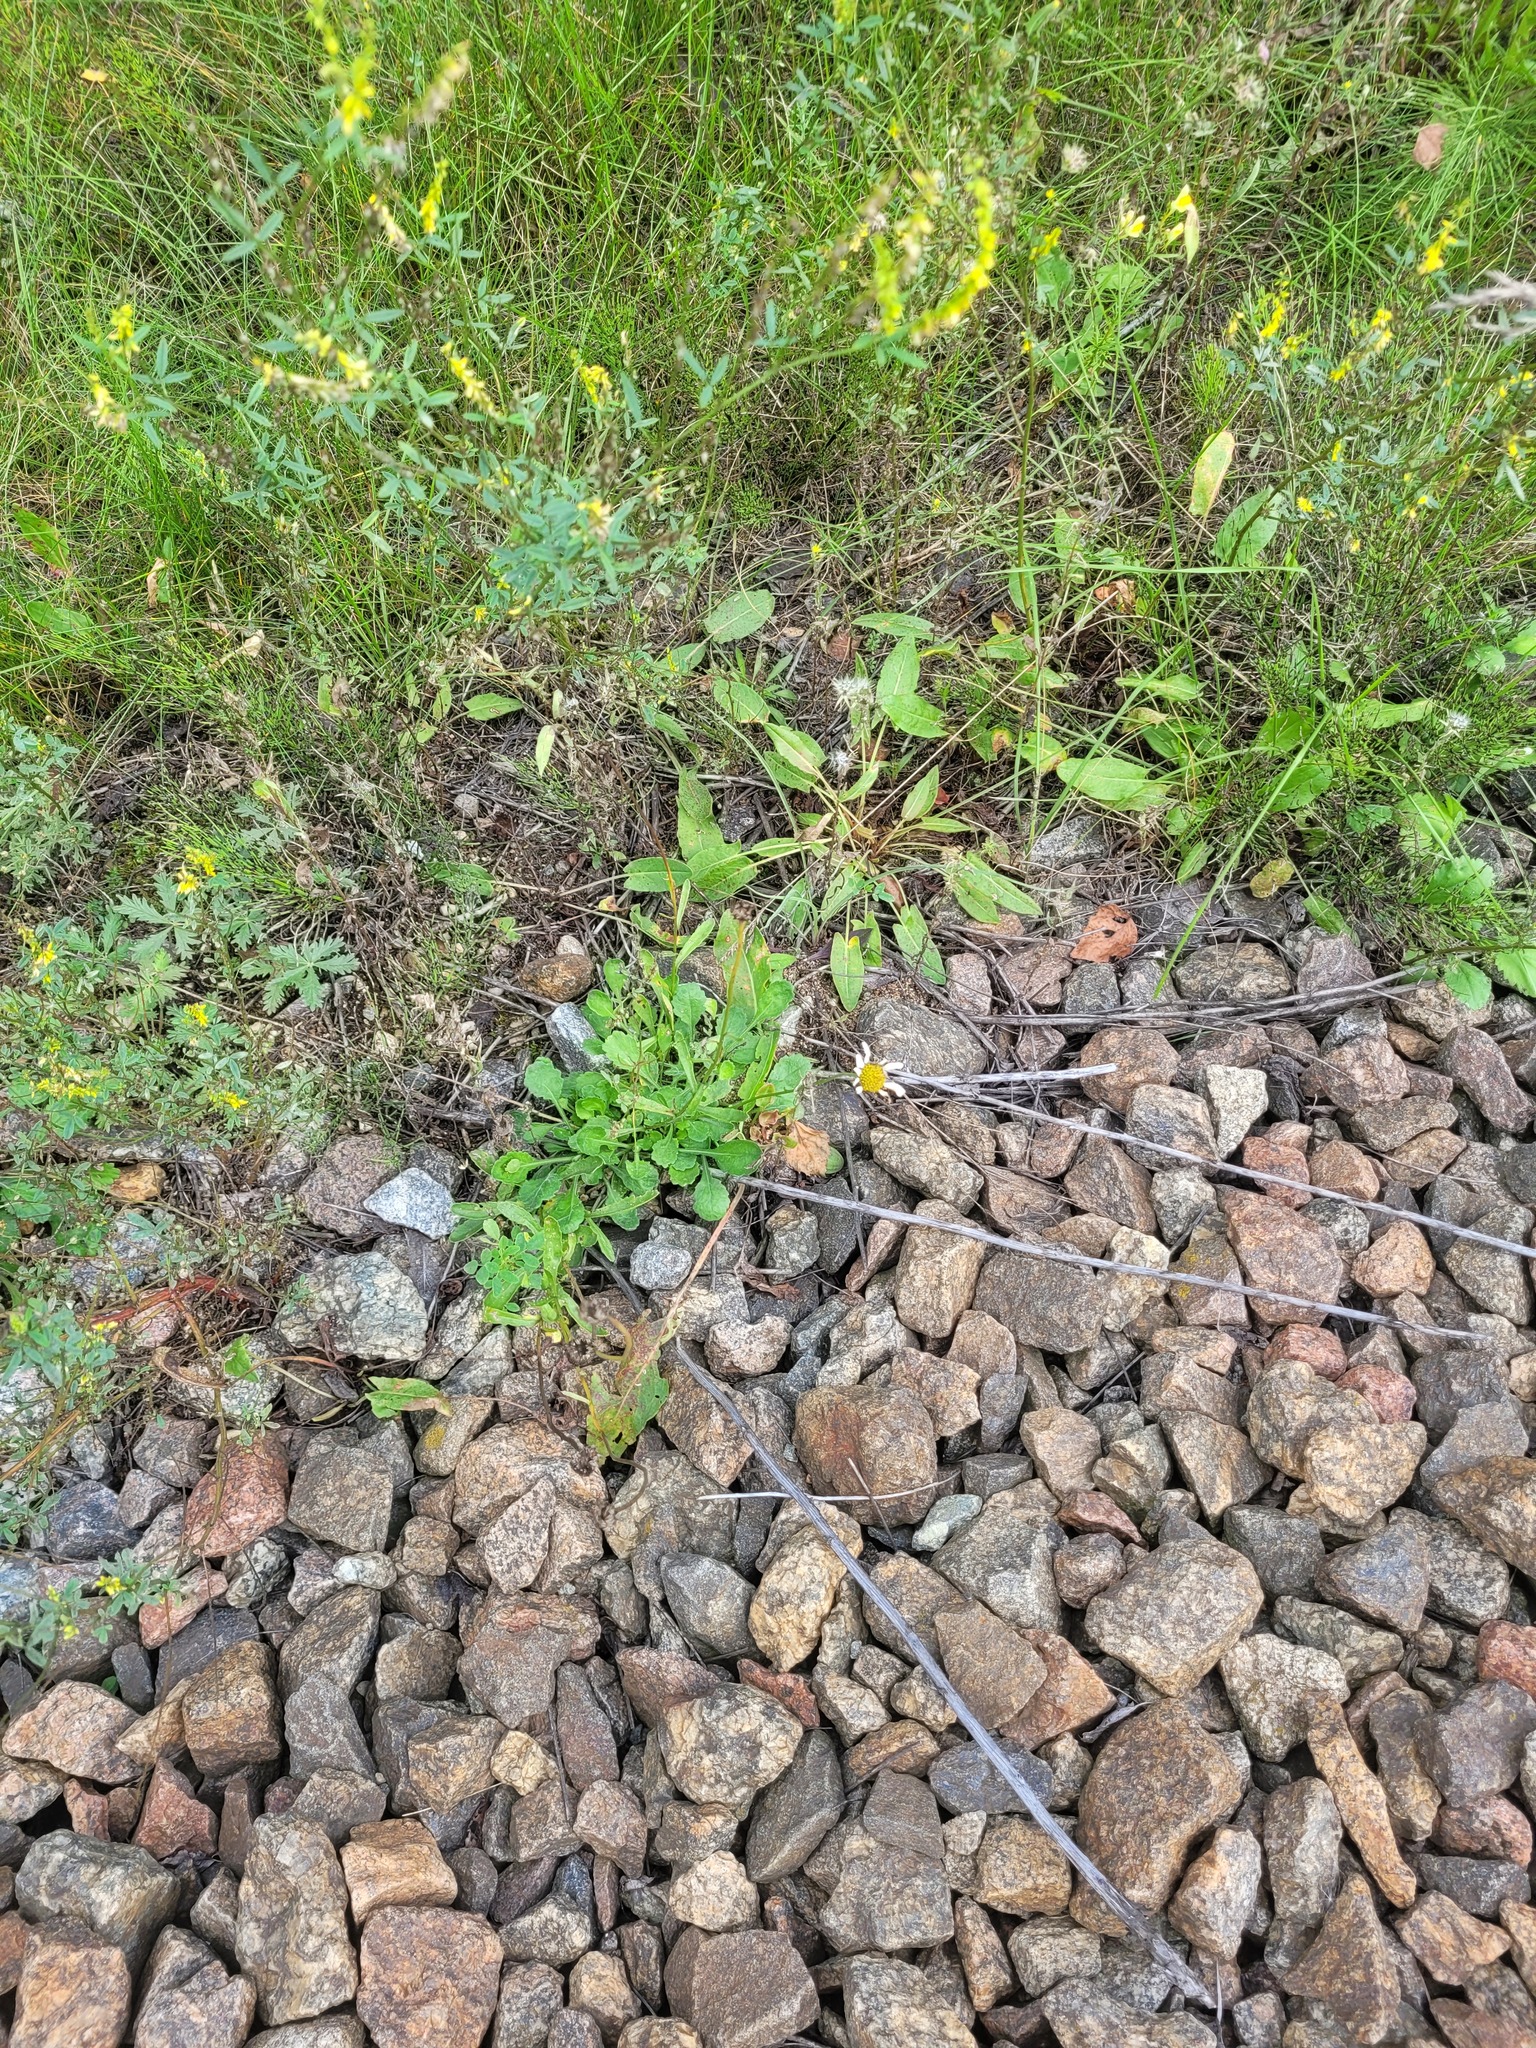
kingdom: Plantae
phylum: Tracheophyta
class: Magnoliopsida
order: Asterales
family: Asteraceae
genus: Leucanthemum
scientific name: Leucanthemum vulgare
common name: Oxeye daisy
